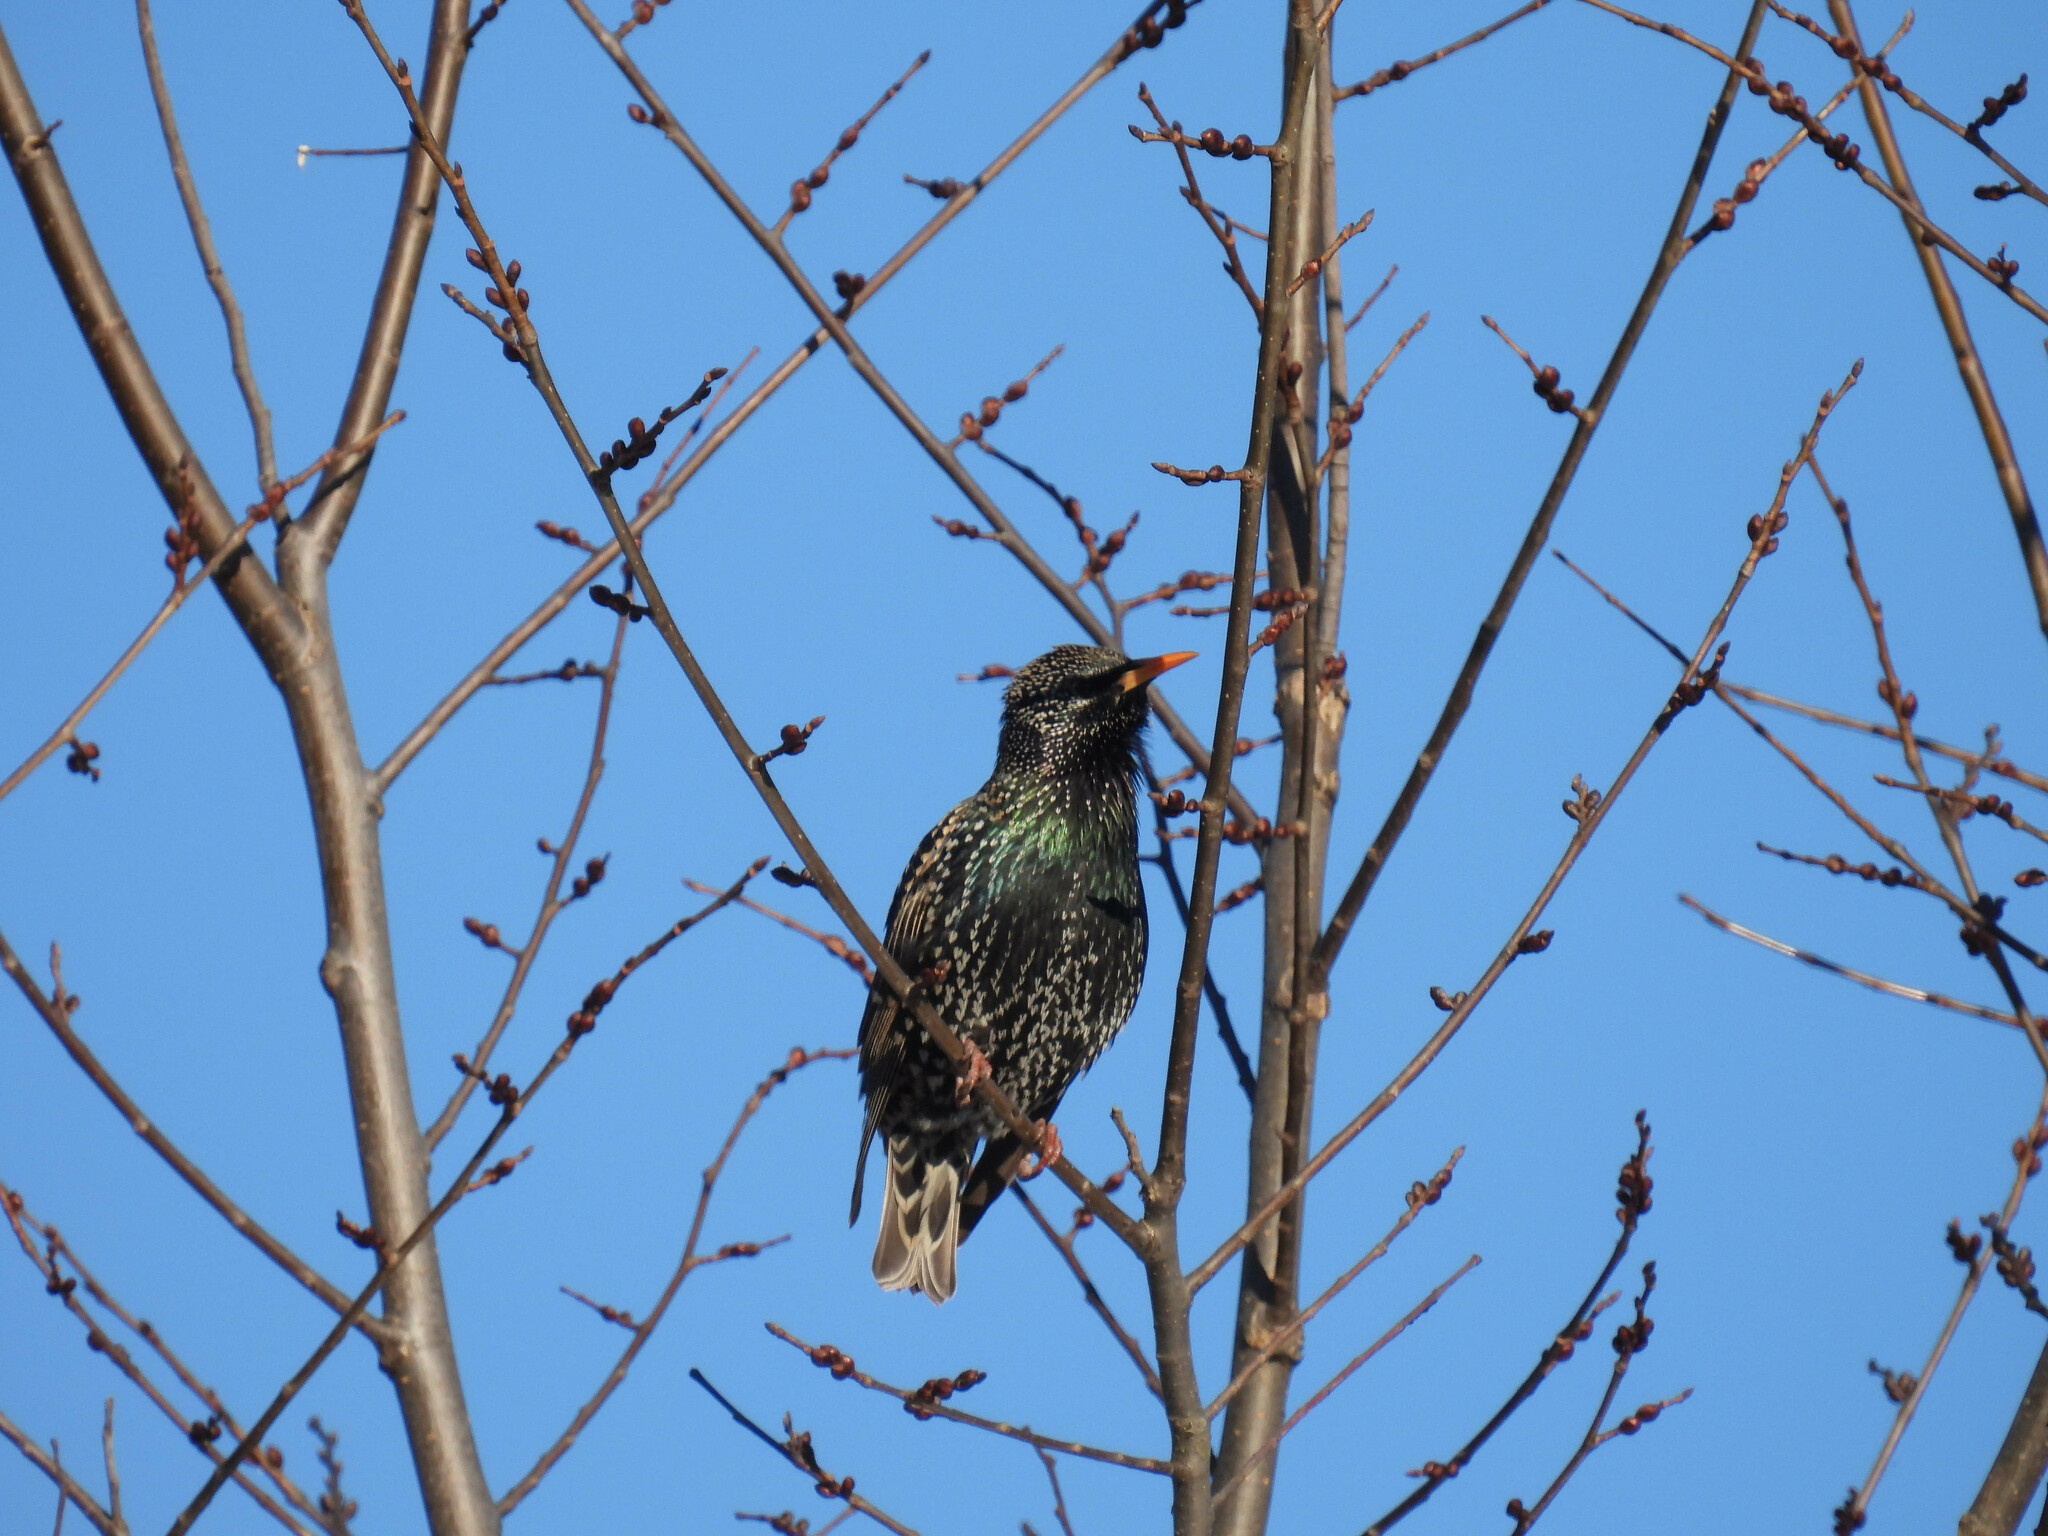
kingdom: Animalia
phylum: Chordata
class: Aves
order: Passeriformes
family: Sturnidae
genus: Sturnus
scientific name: Sturnus vulgaris
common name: Common starling
